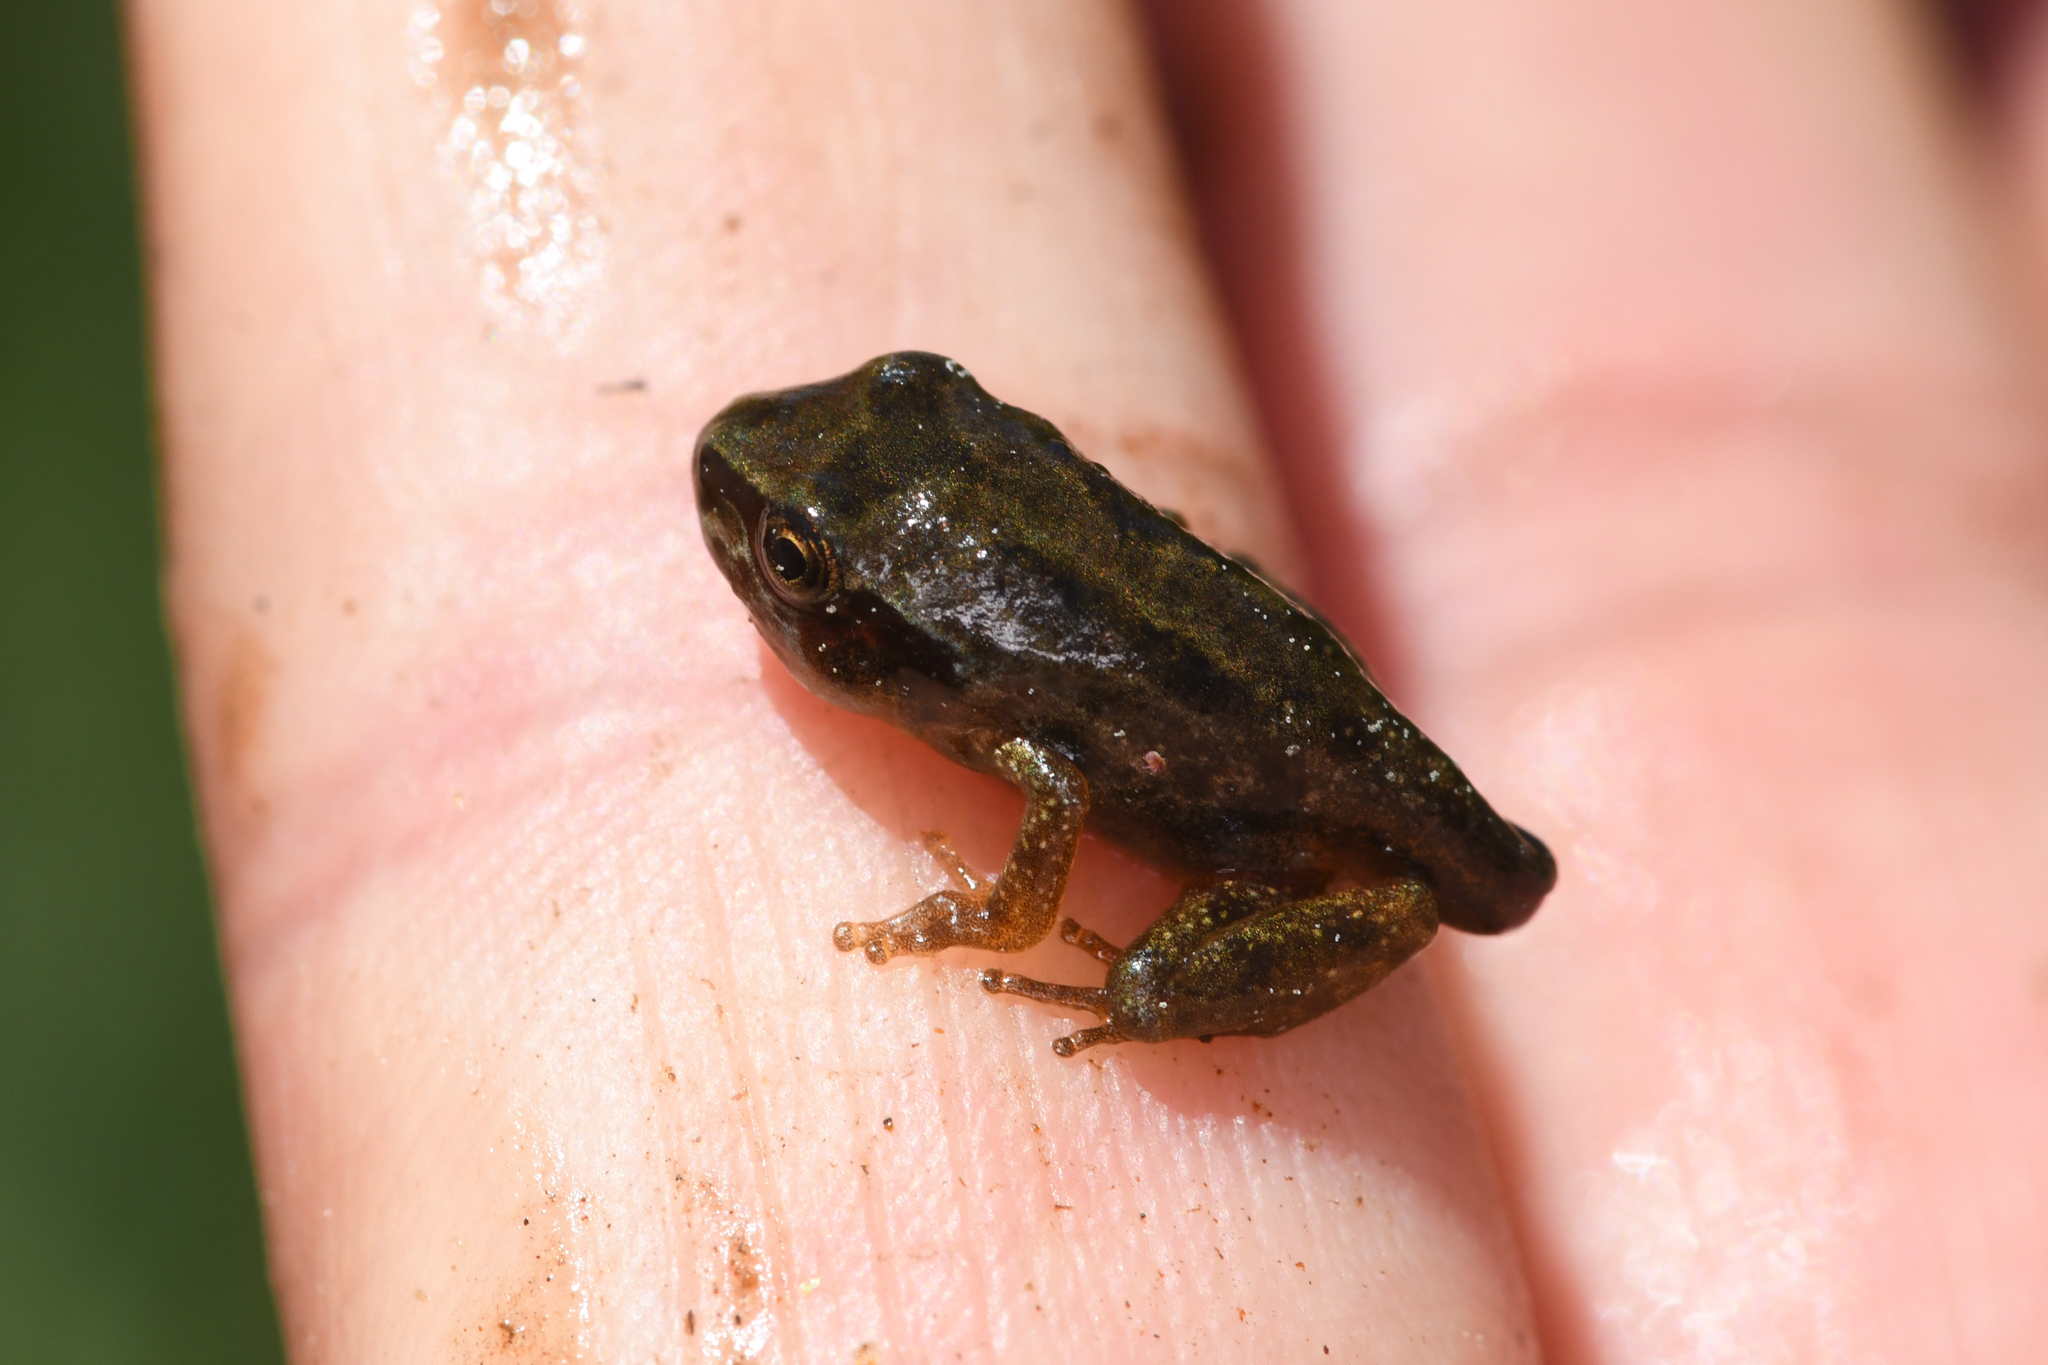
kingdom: Animalia
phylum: Chordata
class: Amphibia
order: Anura
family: Hylidae
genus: Pseudacris
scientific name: Pseudacris regilla
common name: Pacific chorus frog
